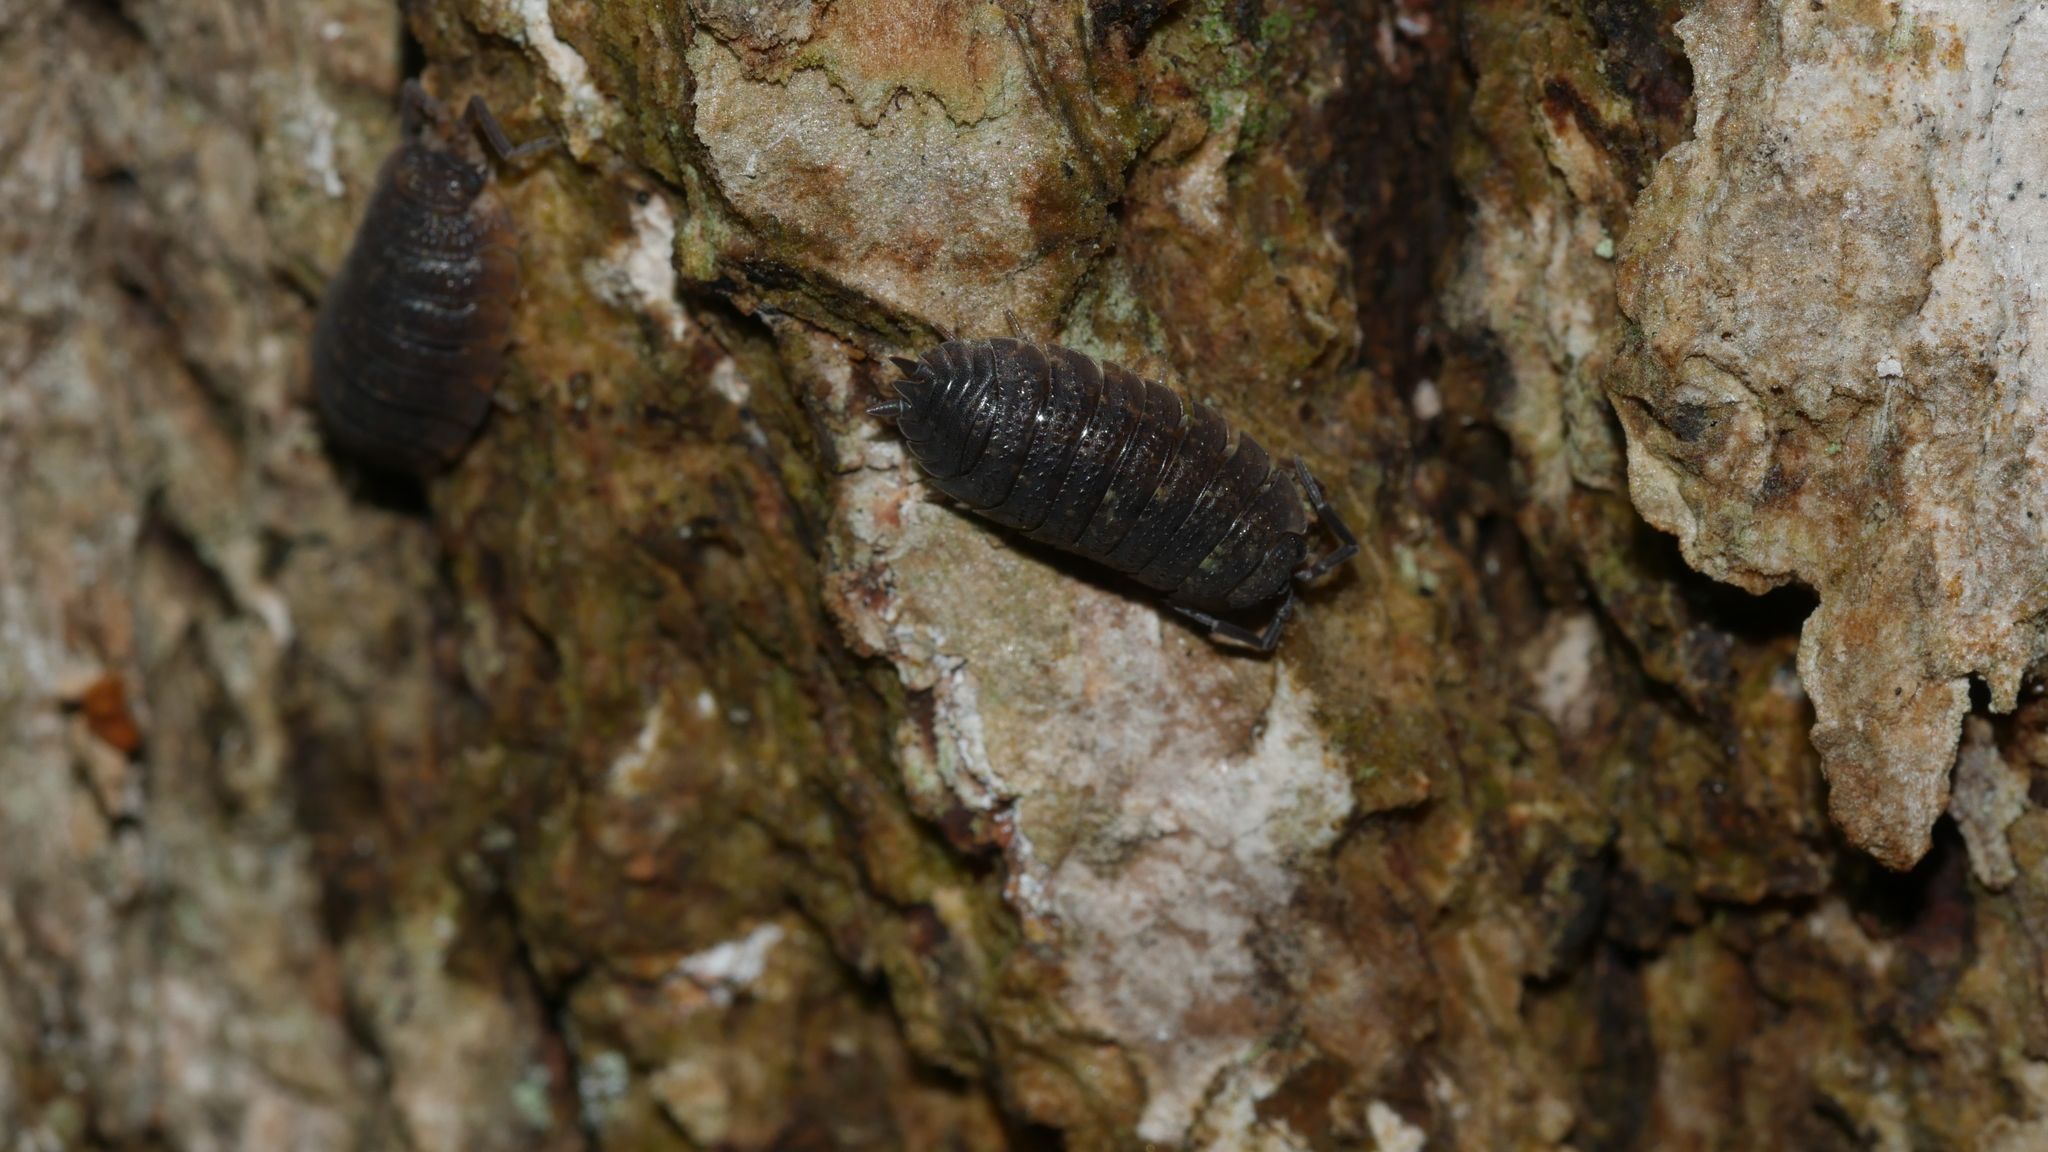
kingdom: Animalia
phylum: Arthropoda
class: Malacostraca
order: Isopoda
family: Porcellionidae
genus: Porcellio
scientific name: Porcellio scaber
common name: Common rough woodlouse
